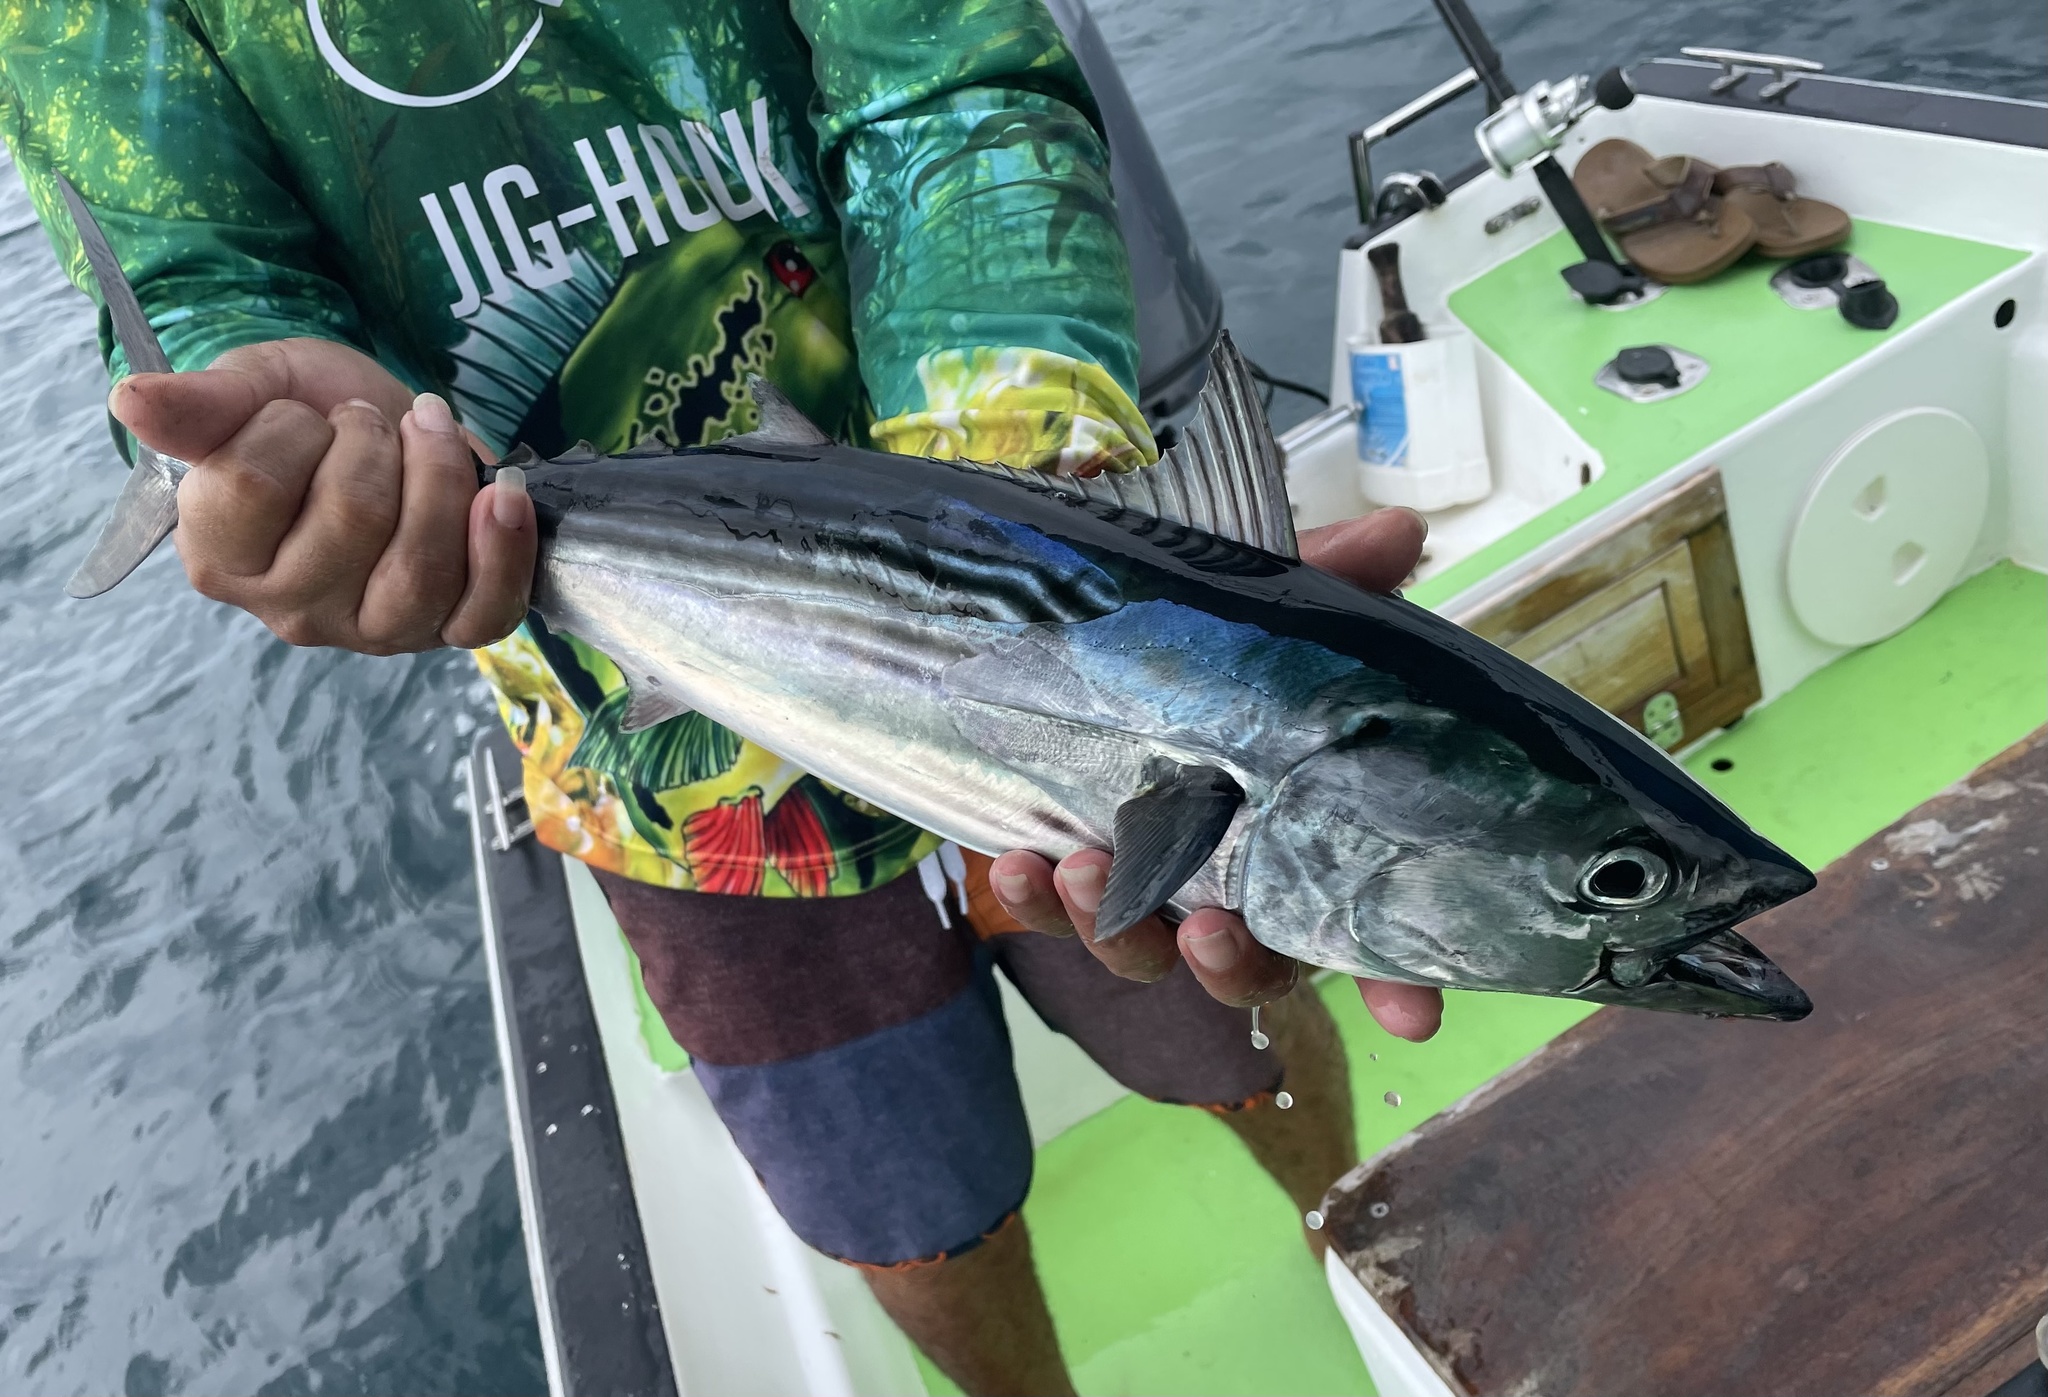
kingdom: Animalia
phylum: Chordata
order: Perciformes
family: Scombridae
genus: Euthynnus
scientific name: Euthynnus lineatus
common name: Black skipjack
